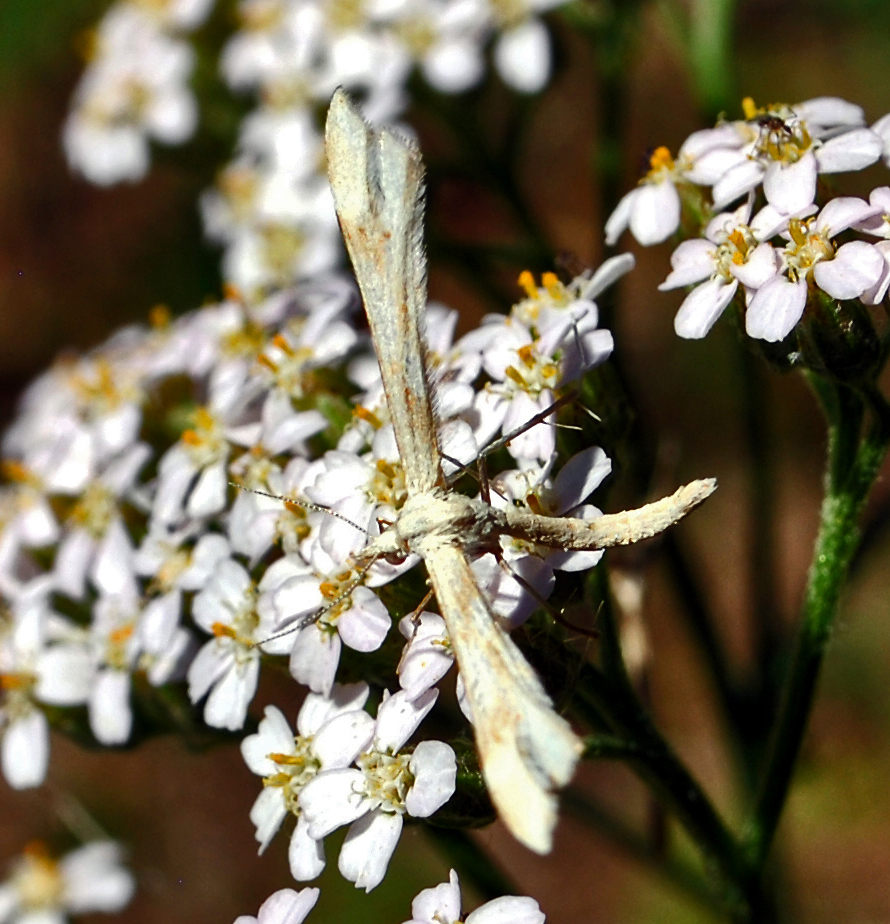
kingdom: Animalia
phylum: Arthropoda
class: Insecta
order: Lepidoptera
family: Pterophoridae
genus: Gillmeria
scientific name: Gillmeria pallidactyla
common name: Yarrow plume
